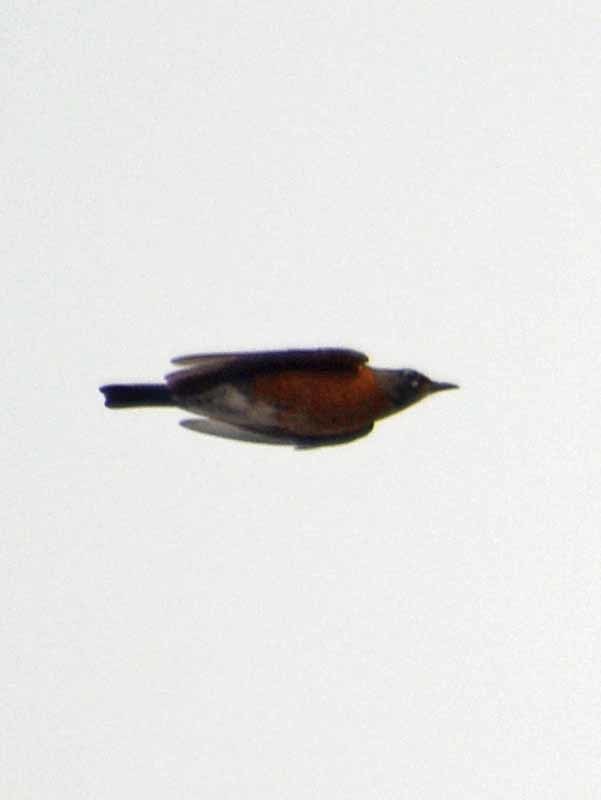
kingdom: Animalia
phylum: Chordata
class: Aves
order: Passeriformes
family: Turdidae
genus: Turdus
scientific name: Turdus migratorius
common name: American robin
